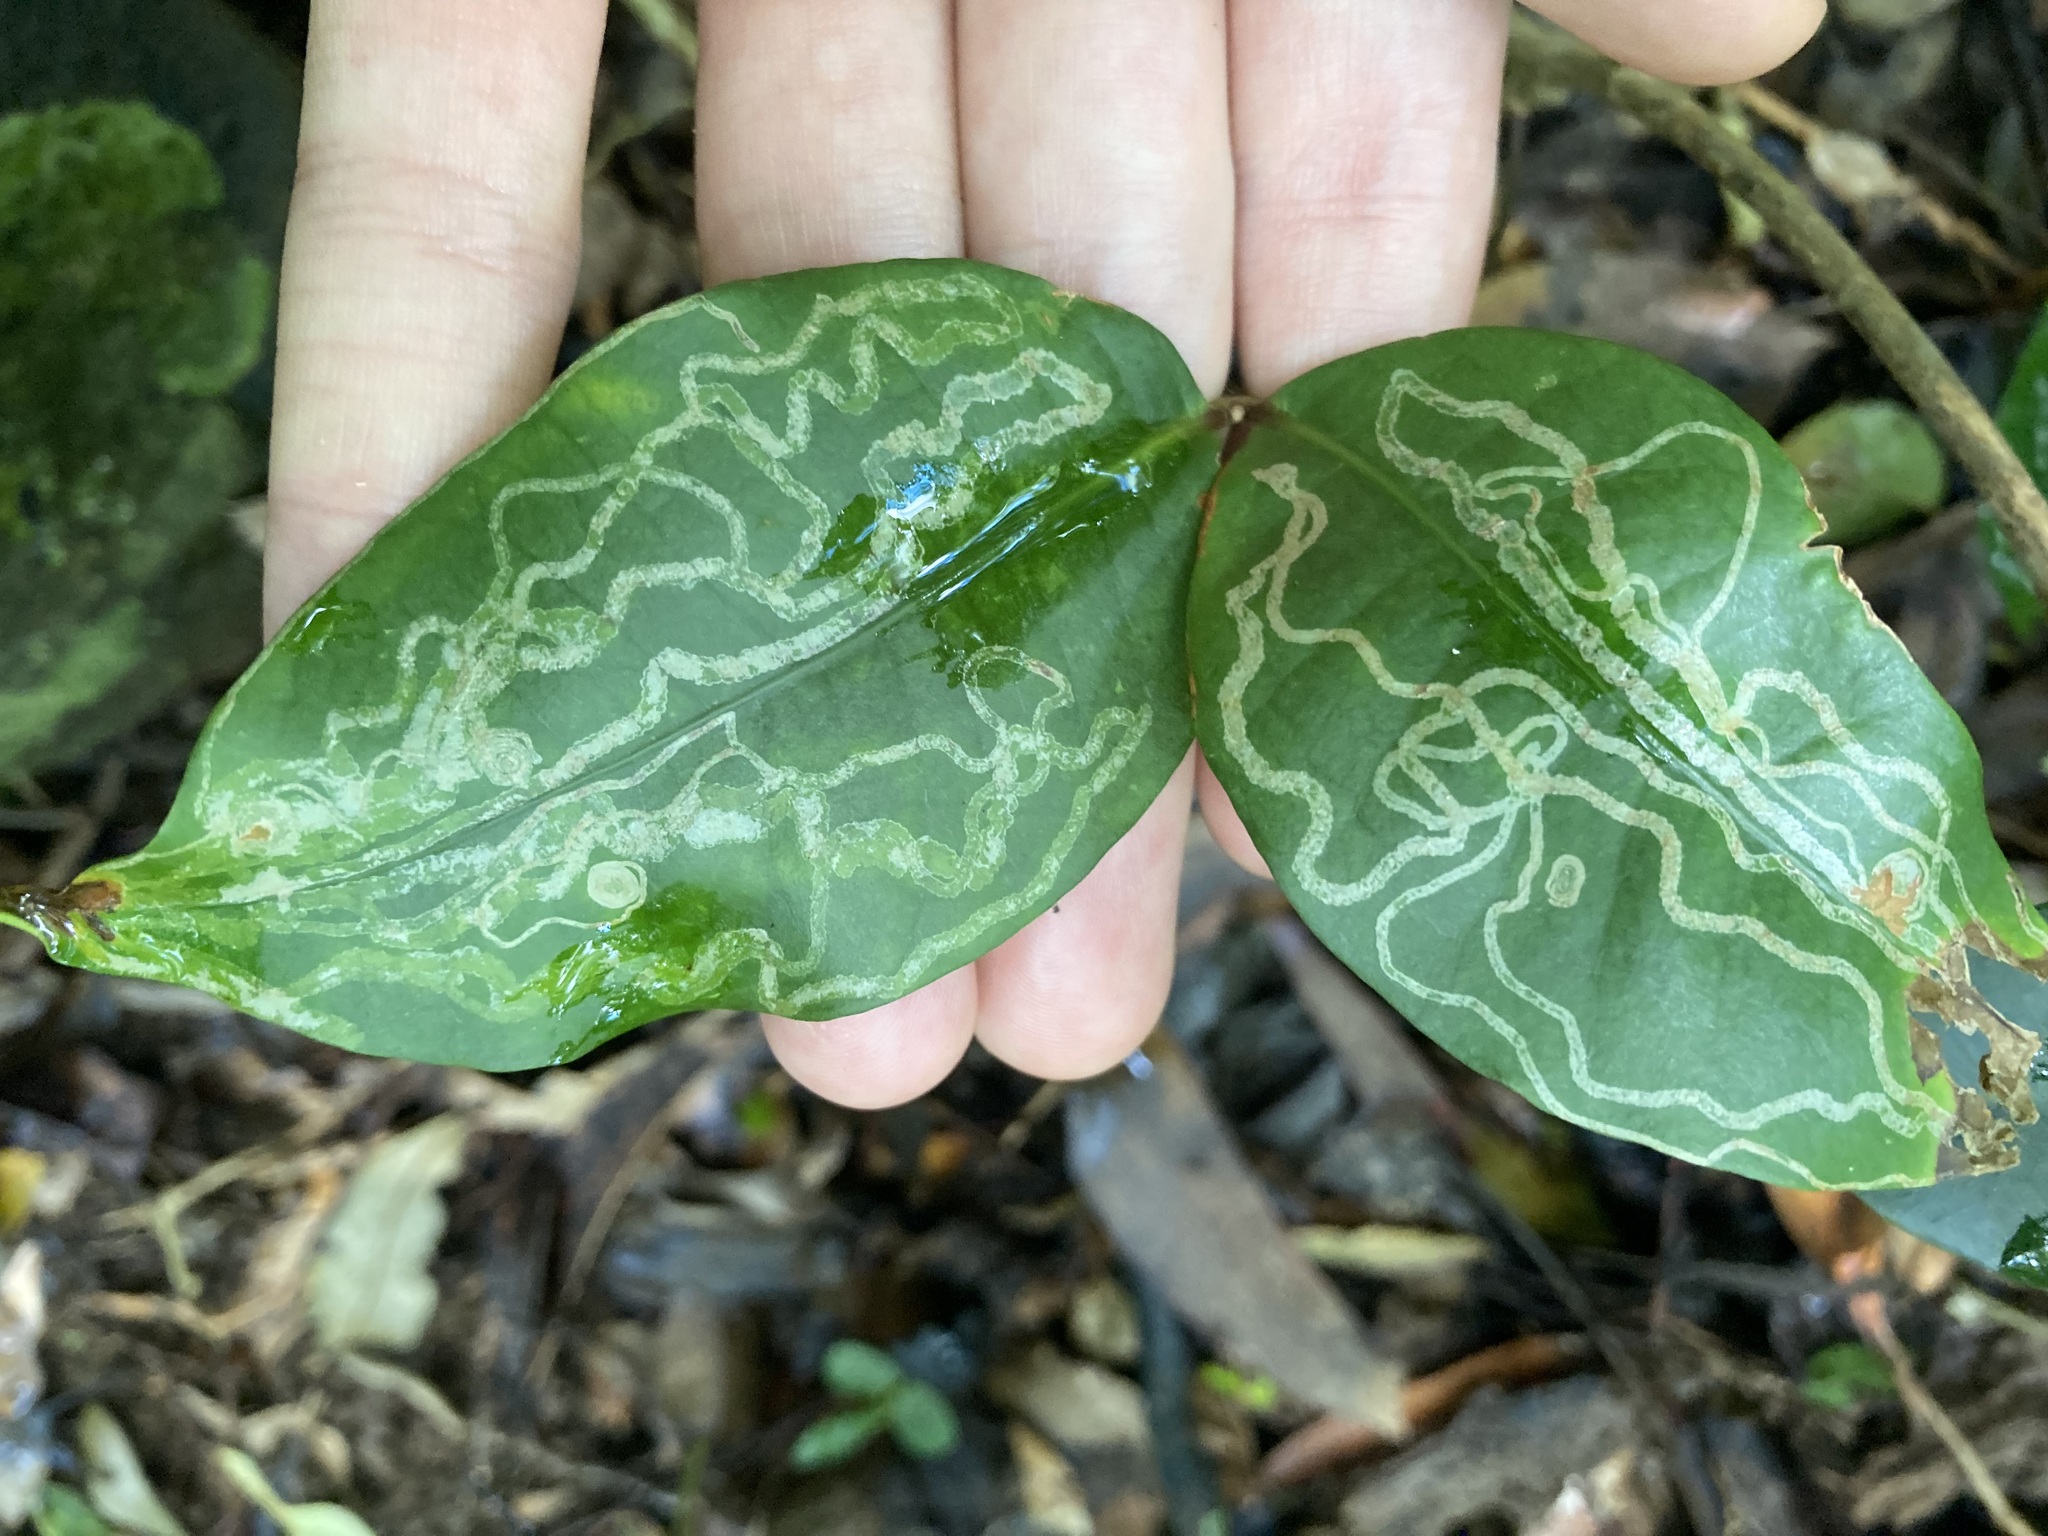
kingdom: Plantae
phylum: Tracheophyta
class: Magnoliopsida
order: Gentianales
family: Apocynaceae
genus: Melodinus
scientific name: Melodinus australis
